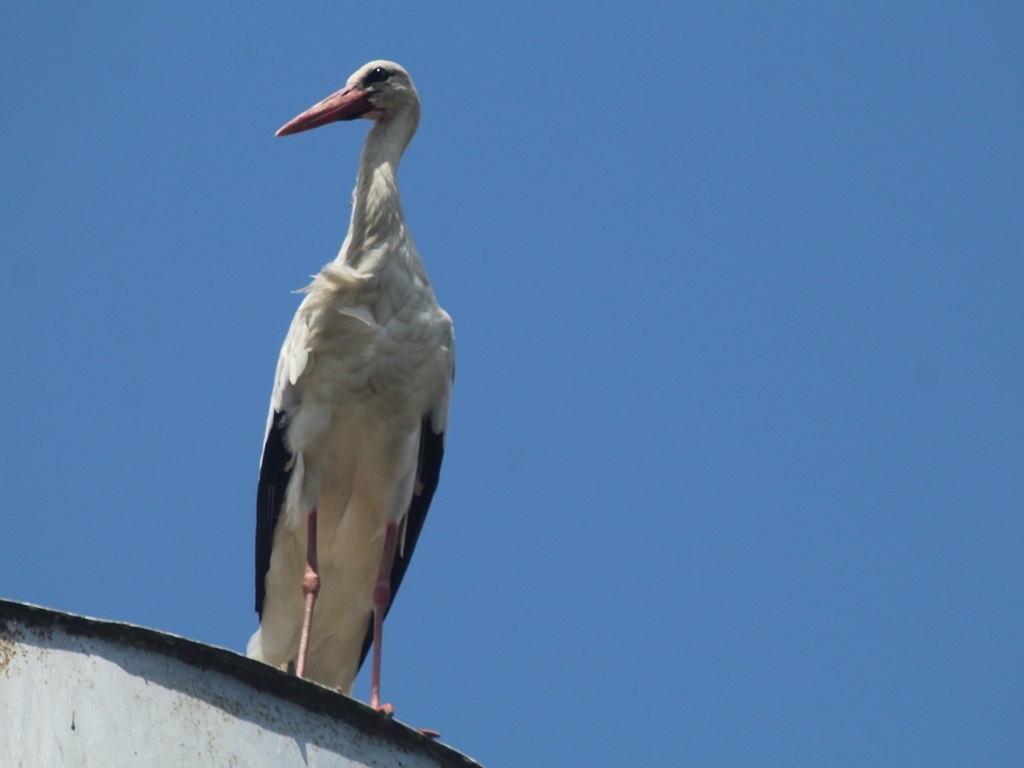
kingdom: Animalia
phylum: Chordata
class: Aves
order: Ciconiiformes
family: Ciconiidae
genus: Ciconia
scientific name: Ciconia ciconia
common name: White stork
